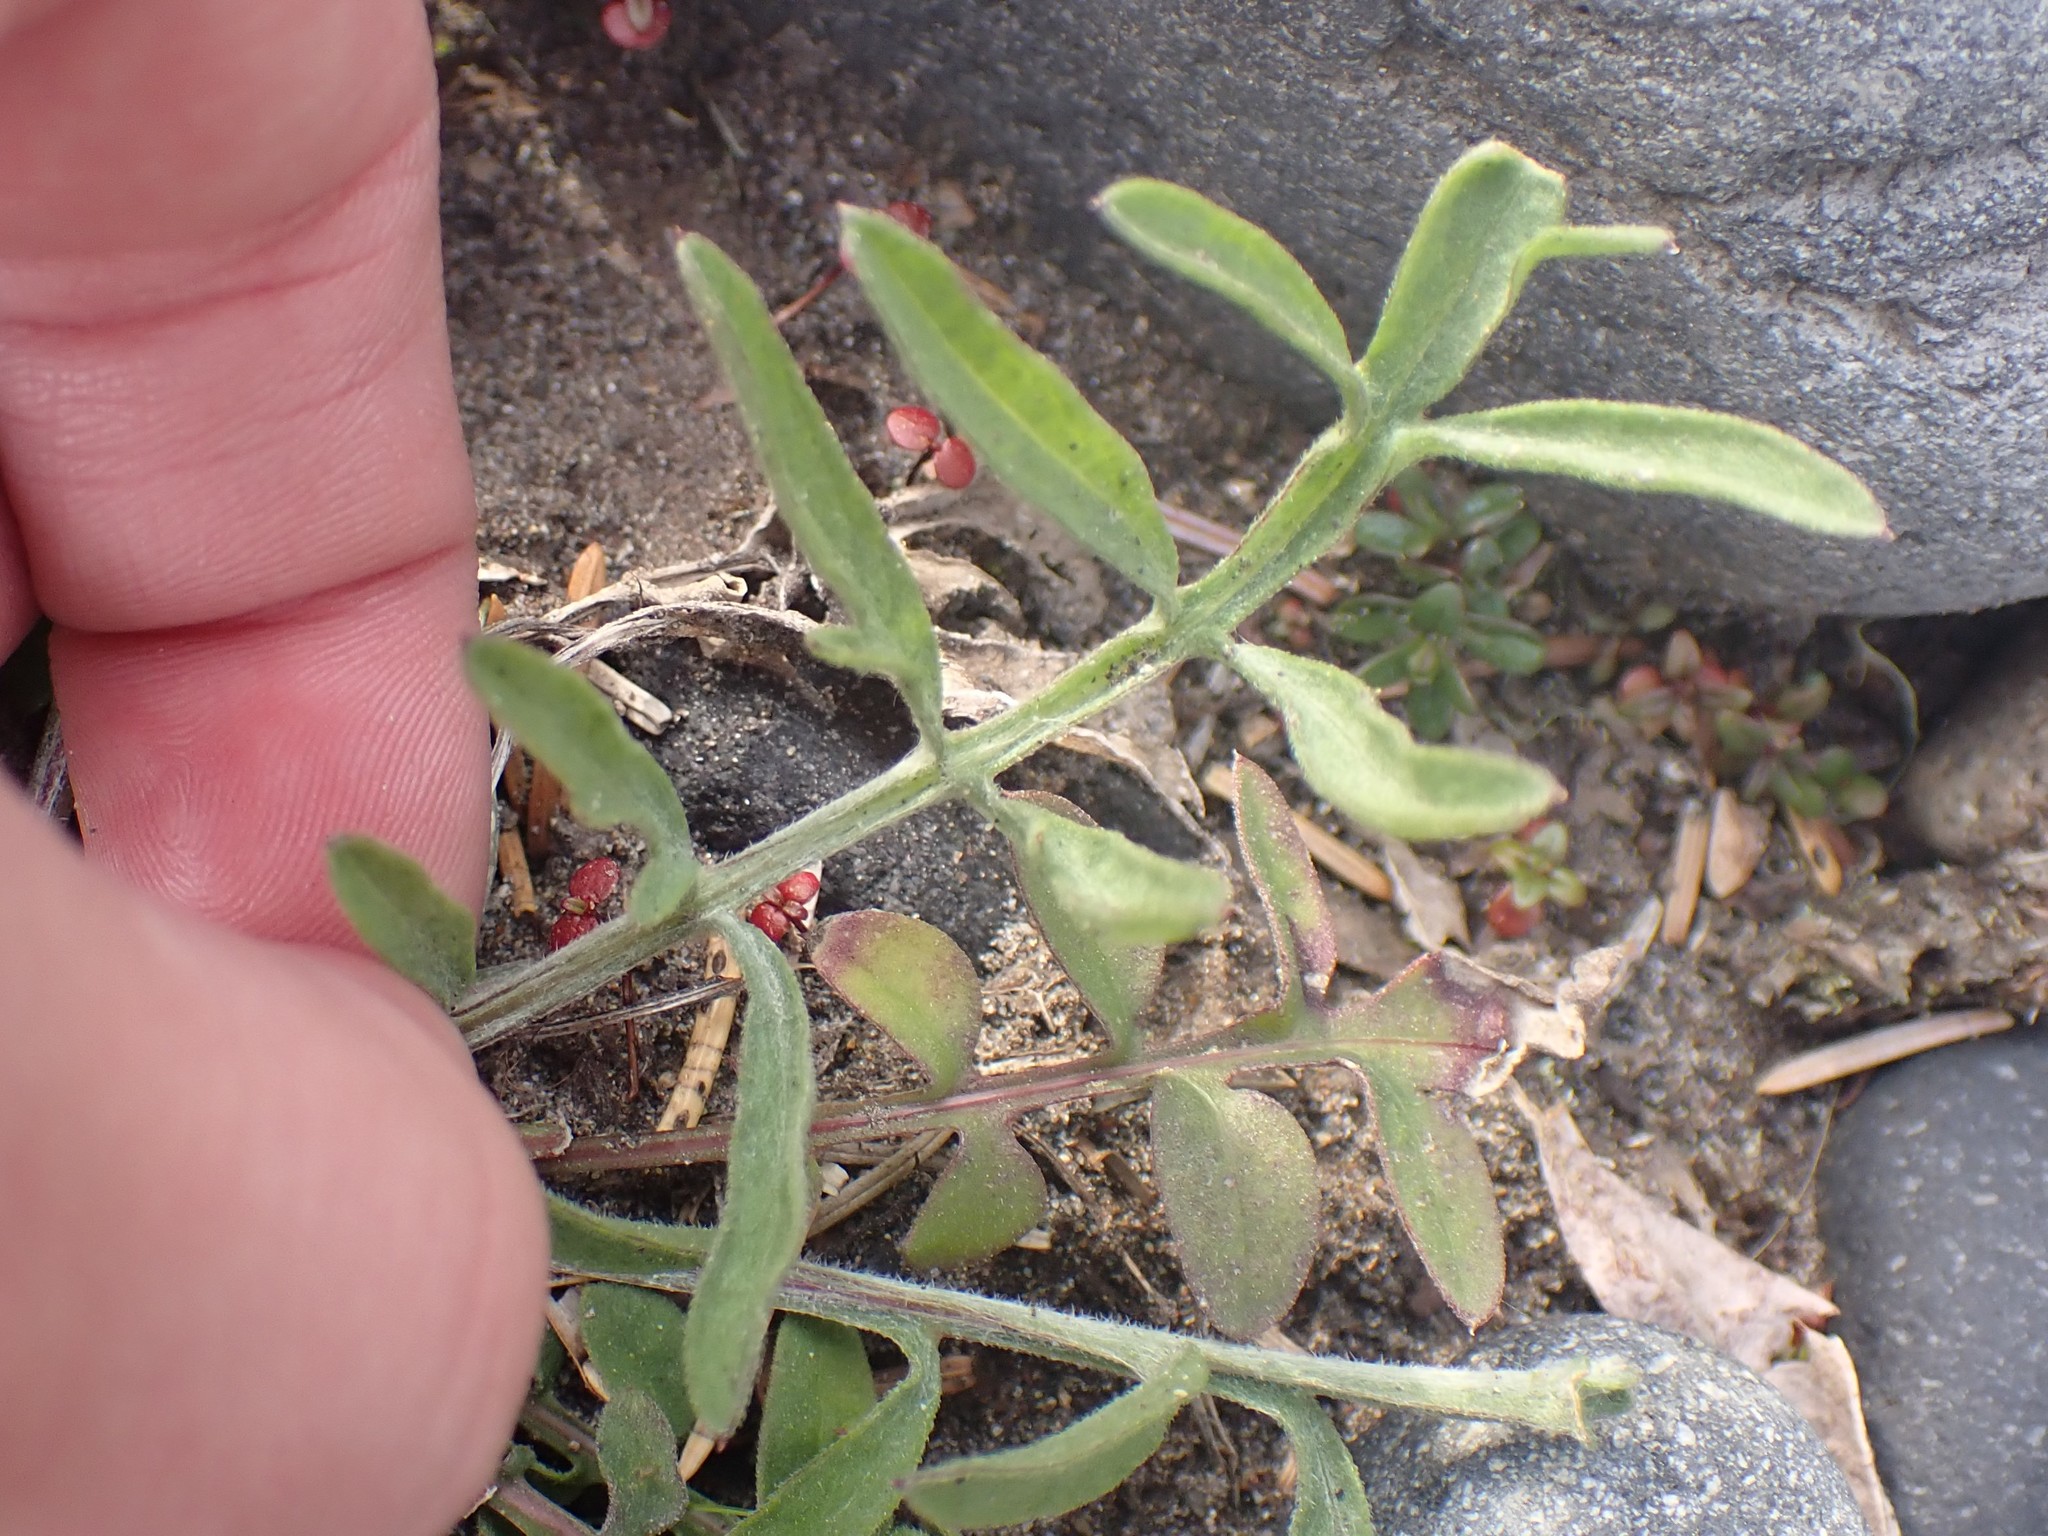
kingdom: Plantae
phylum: Tracheophyta
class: Magnoliopsida
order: Asterales
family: Asteraceae
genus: Centaurea
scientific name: Centaurea stoebe
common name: Spotted knapweed
